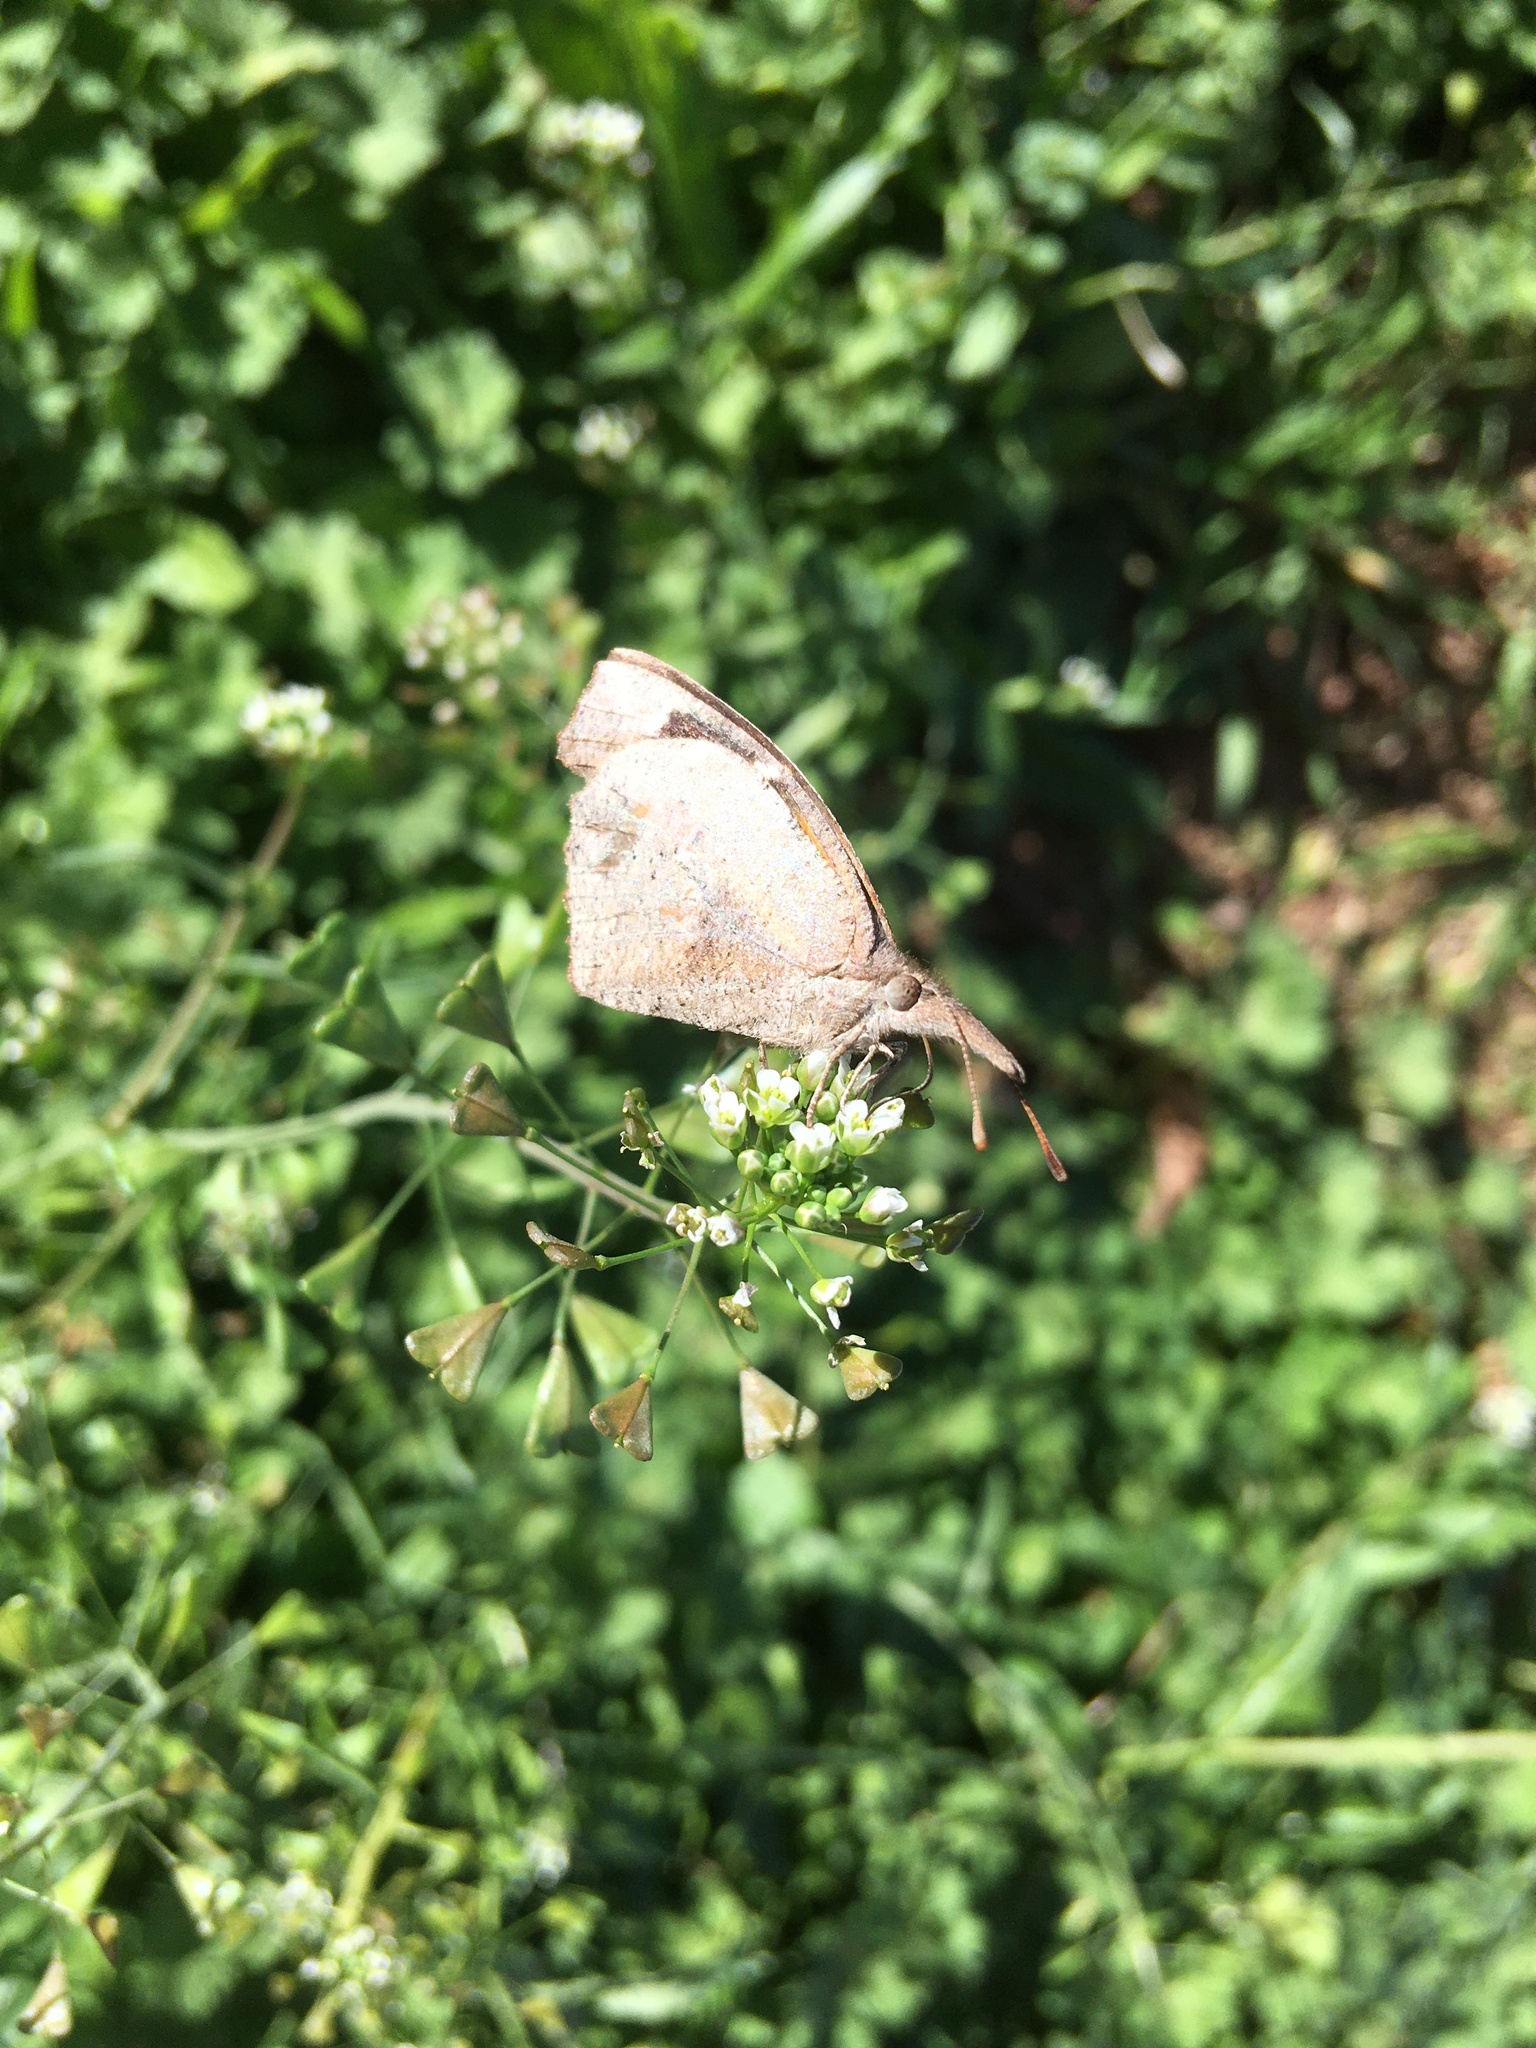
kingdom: Animalia
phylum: Arthropoda
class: Insecta
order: Lepidoptera
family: Nymphalidae
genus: Libytheana
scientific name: Libytheana carinenta
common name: American snout
